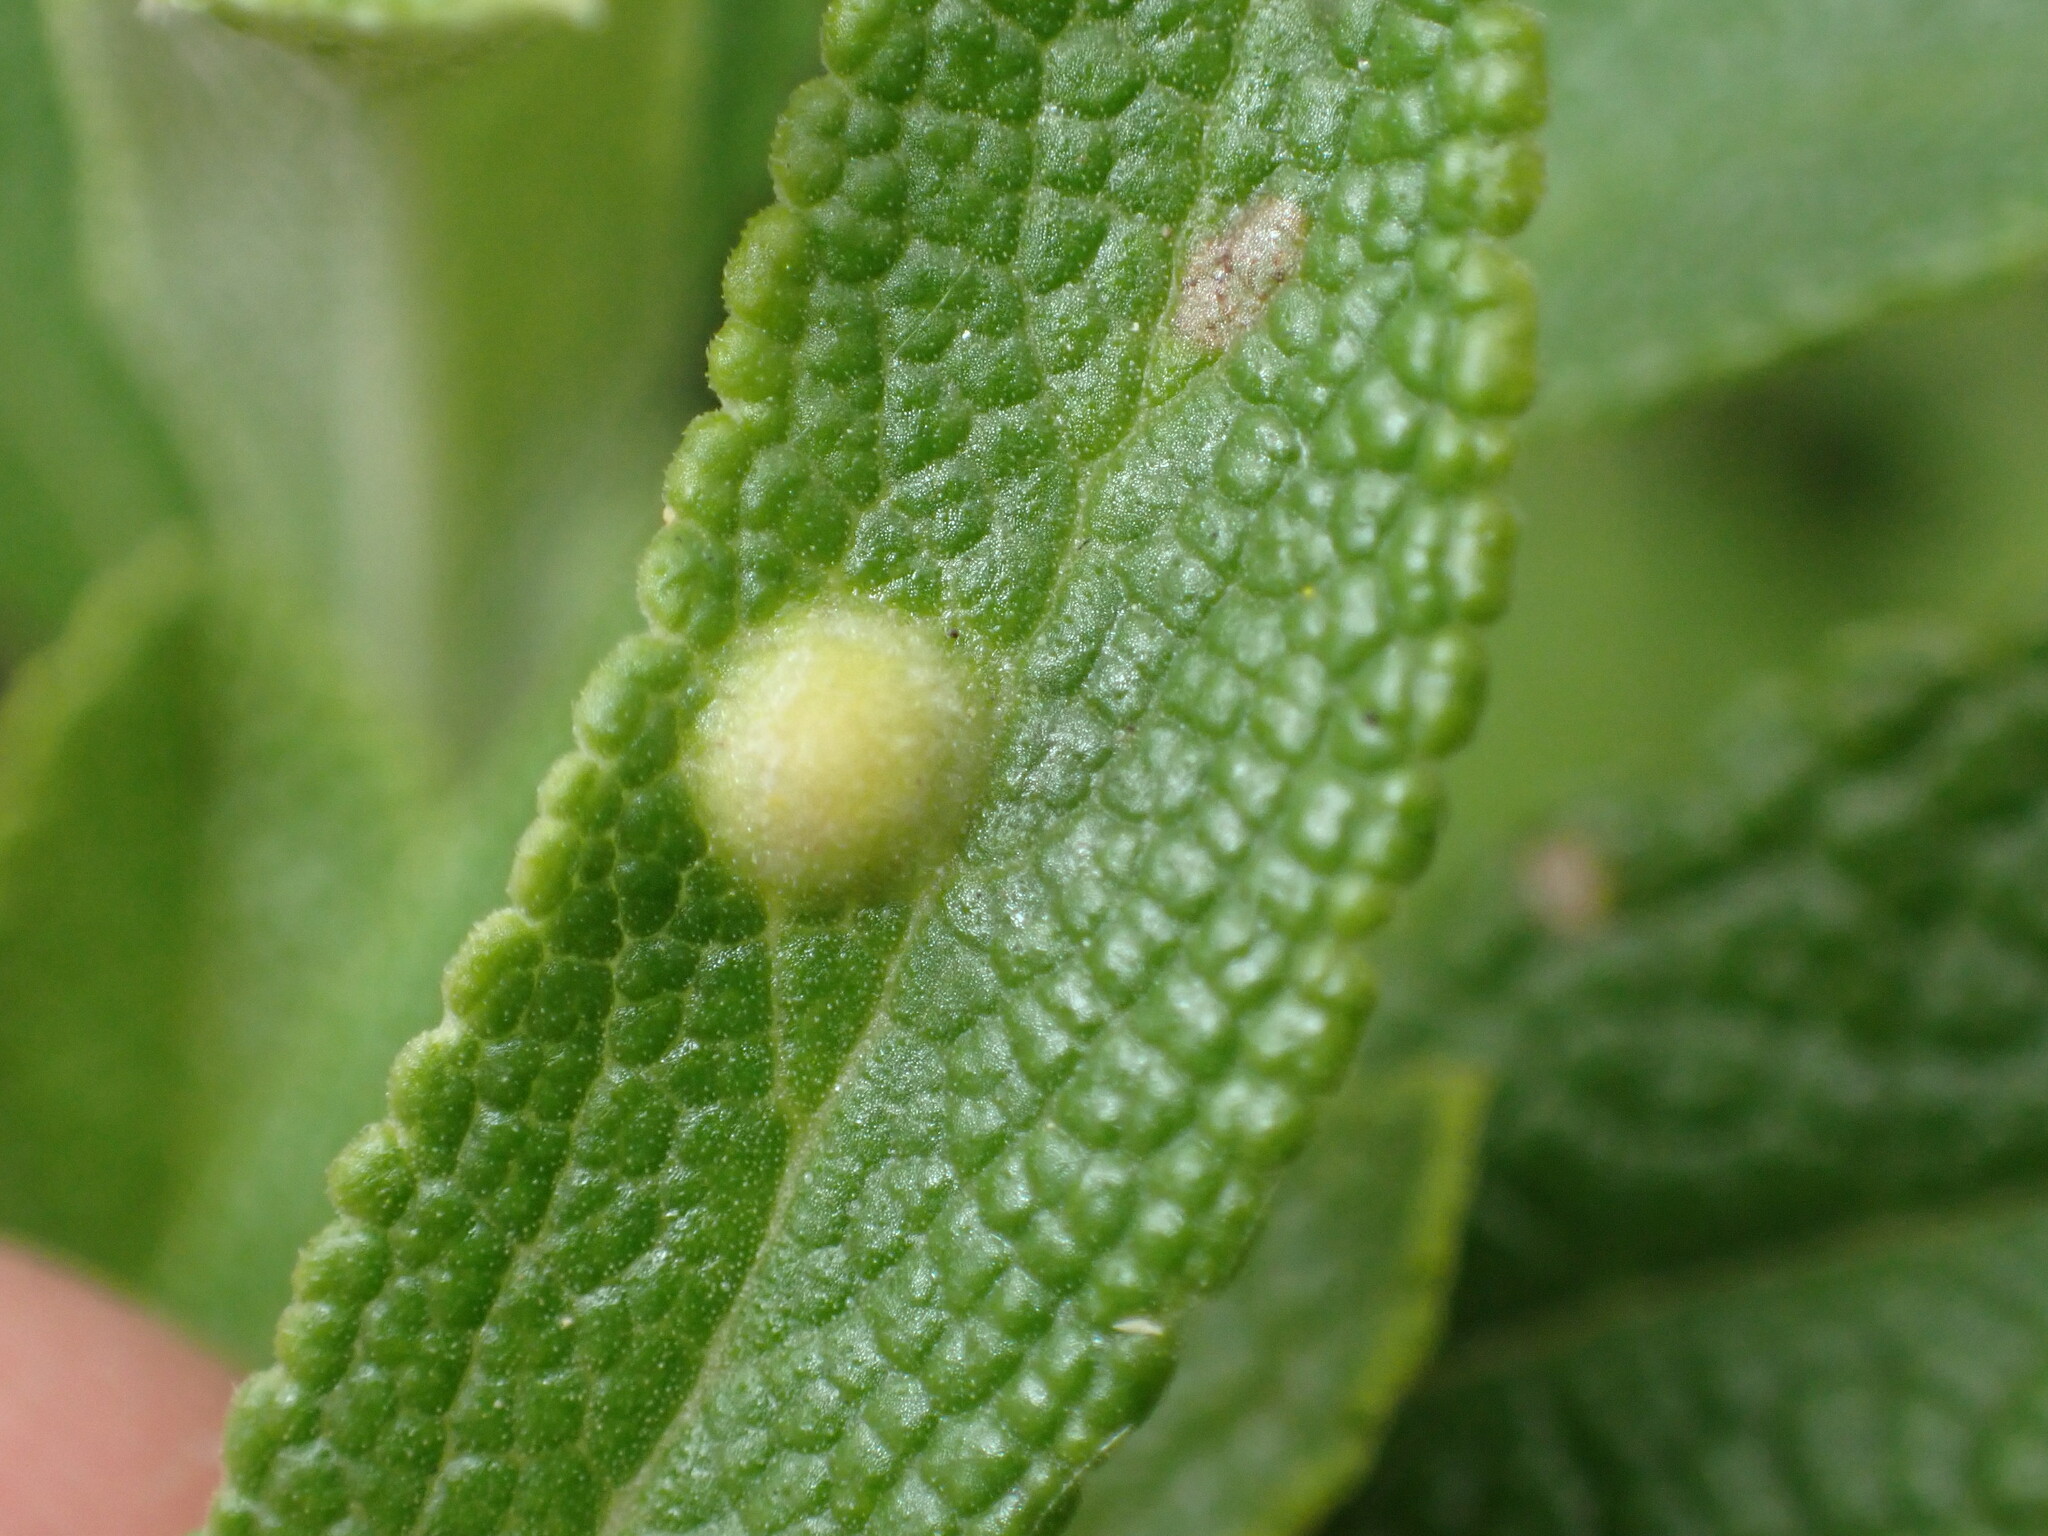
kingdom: Animalia
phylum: Arthropoda
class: Insecta
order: Diptera
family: Cecidomyiidae
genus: Rhopalomyia
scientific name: Rhopalomyia audibertiae
